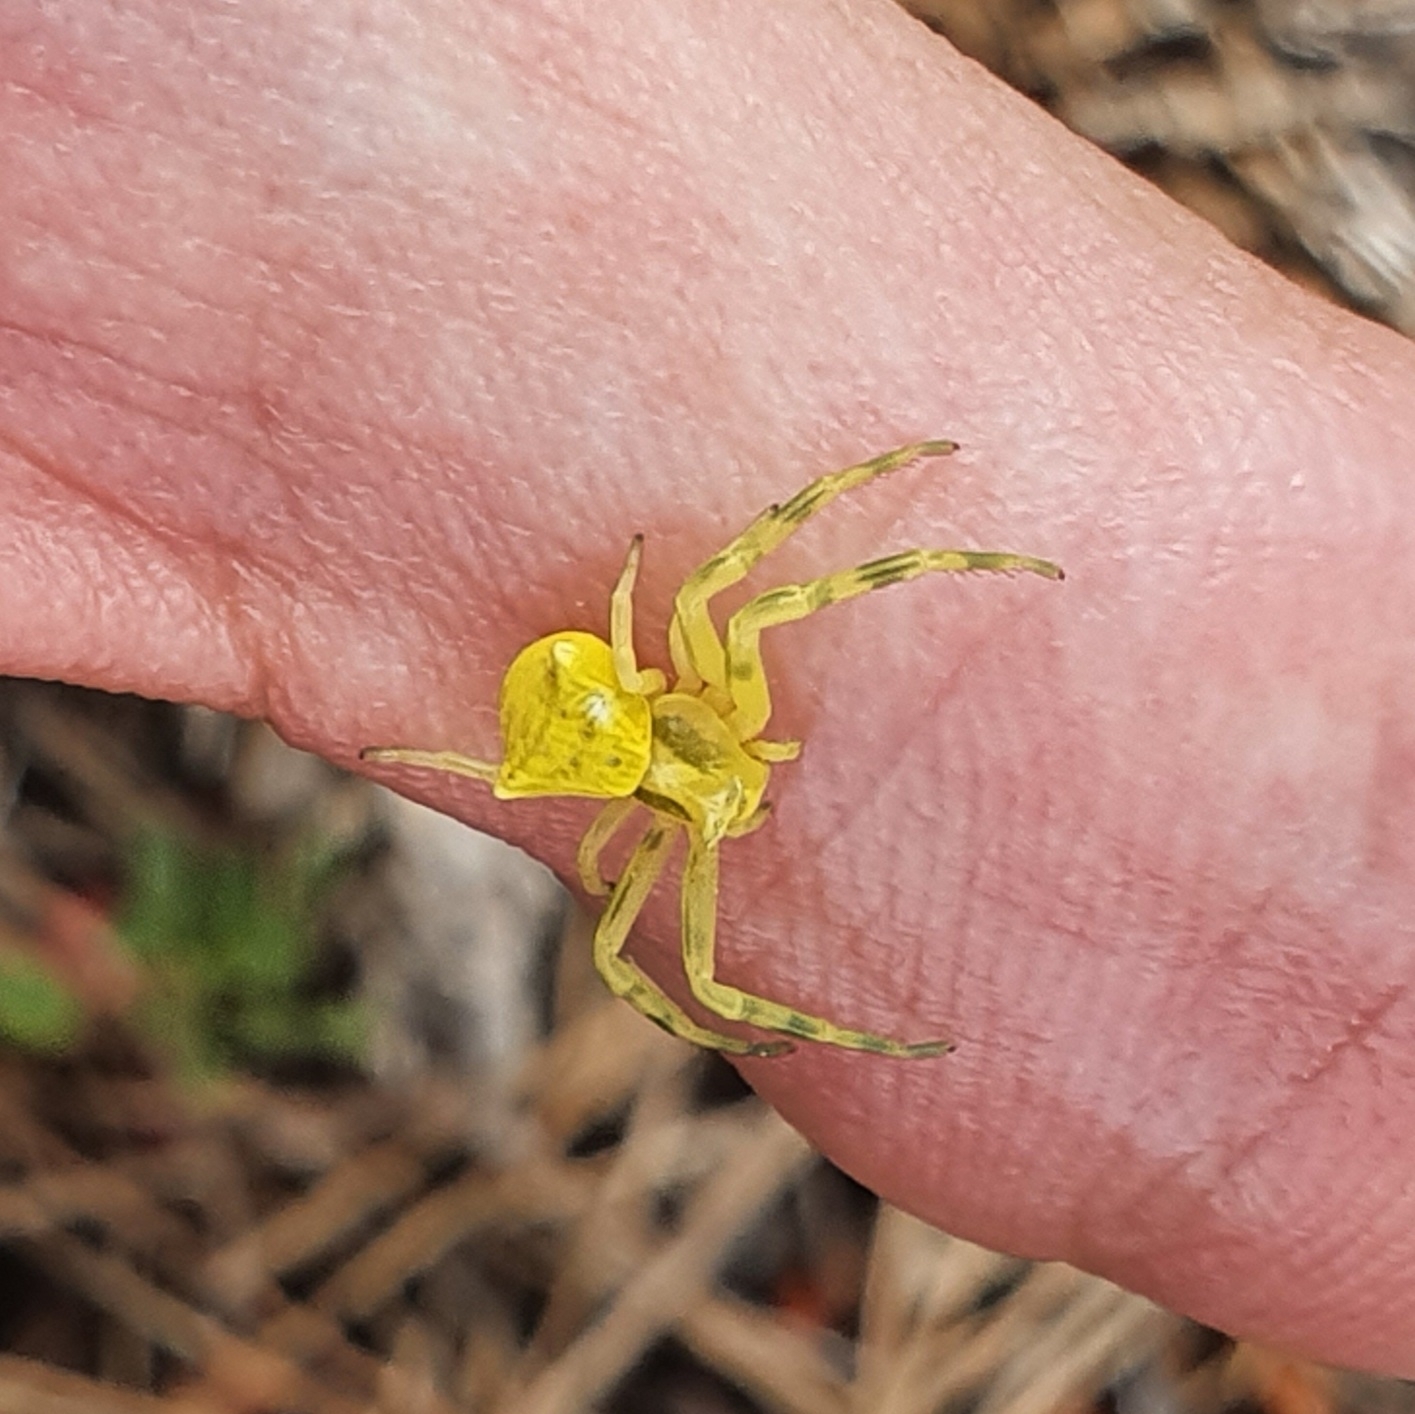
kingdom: Animalia
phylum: Arthropoda
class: Arachnida
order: Araneae
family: Thomisidae
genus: Thomisus
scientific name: Thomisus onustus
